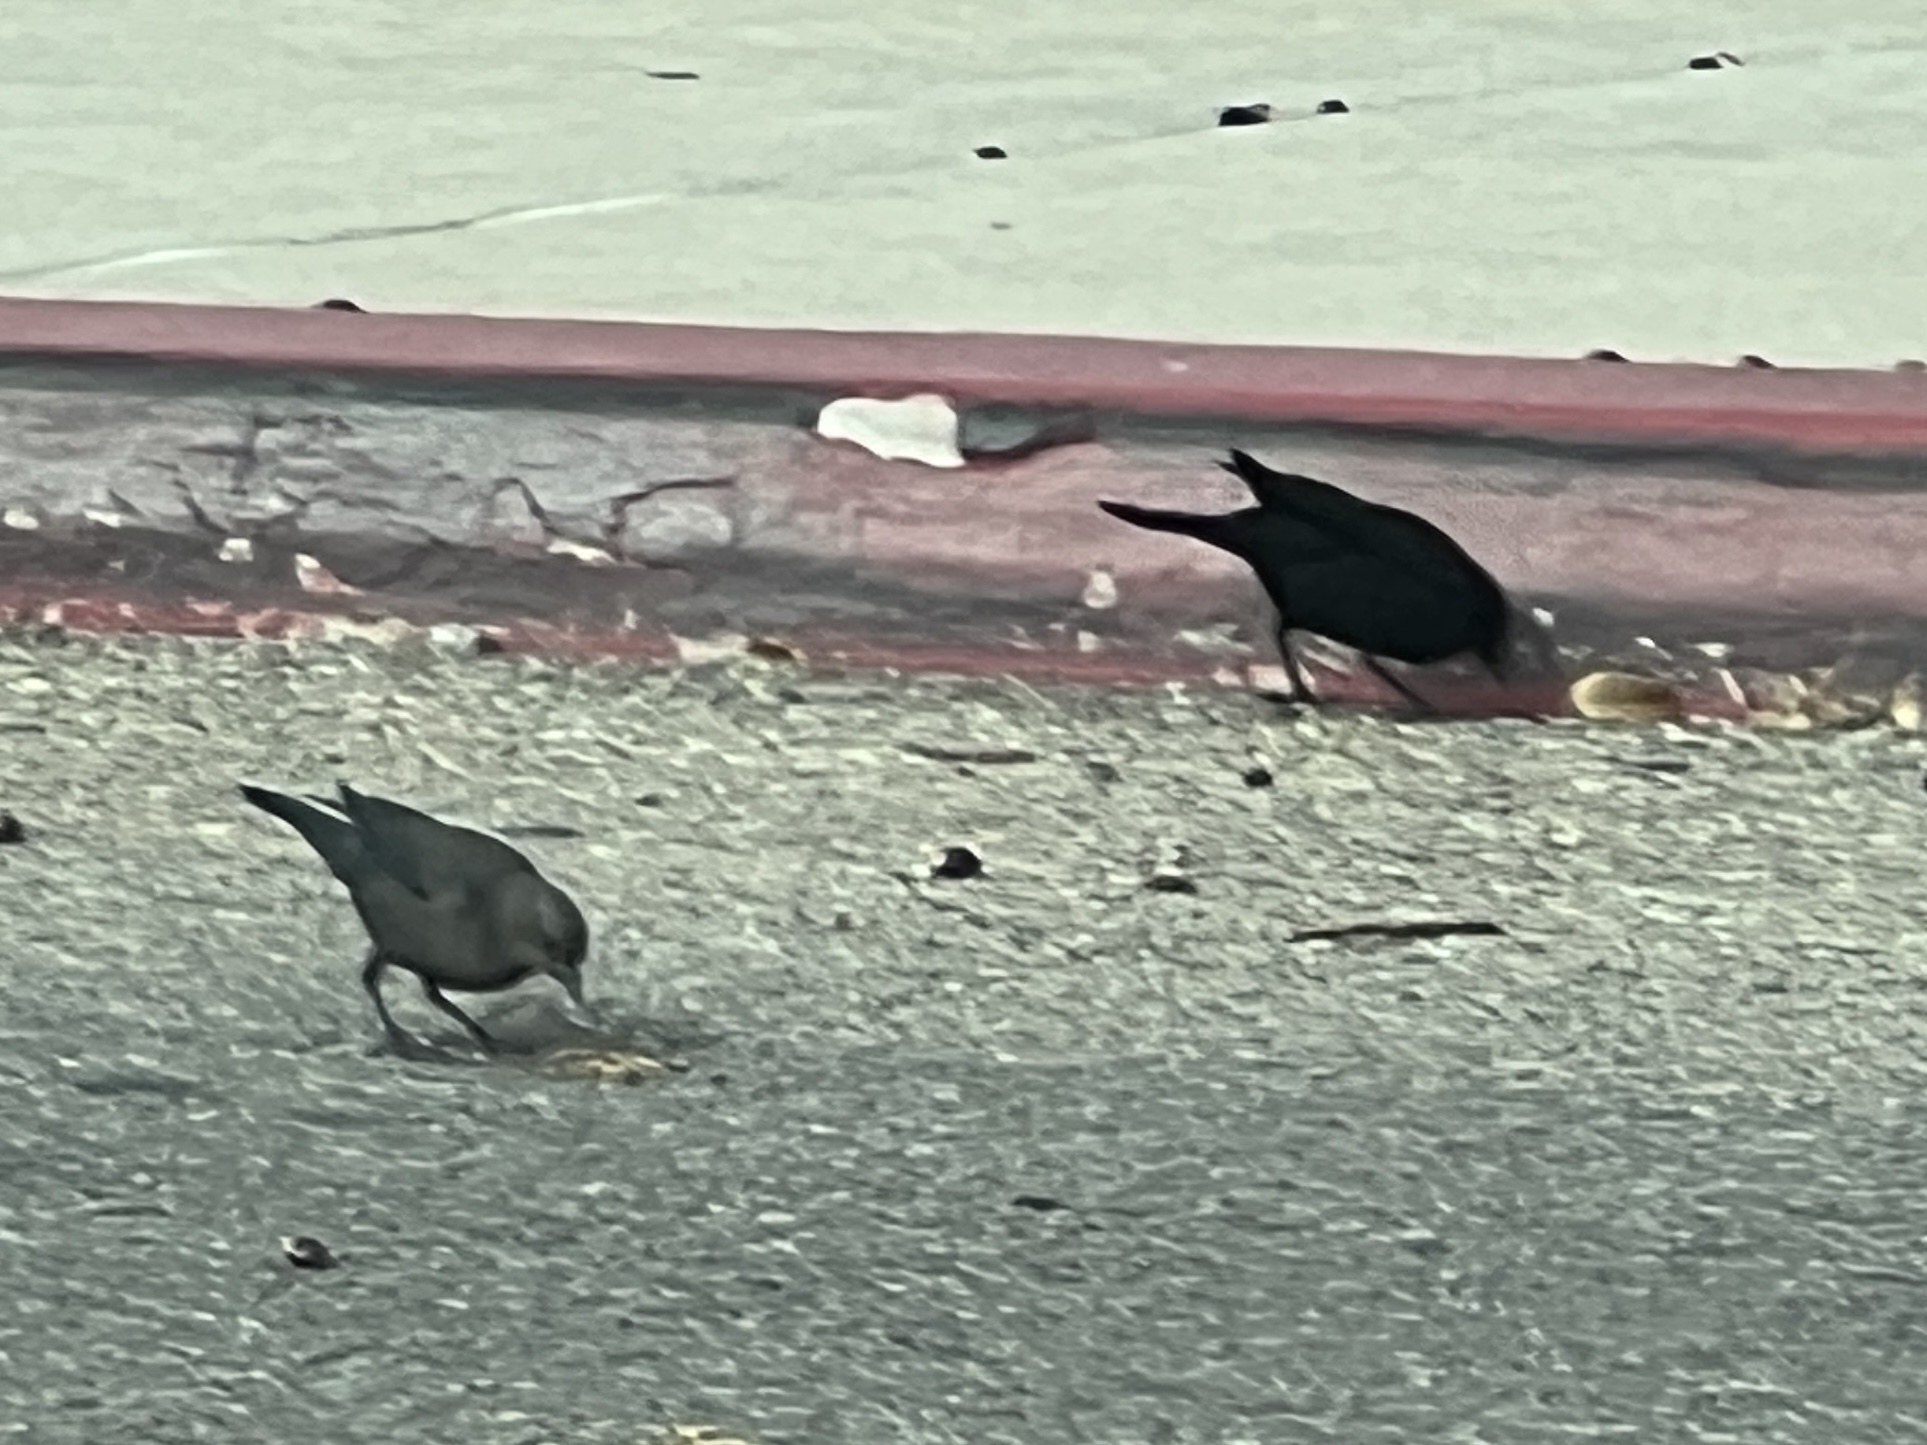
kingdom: Animalia
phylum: Chordata
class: Aves
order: Passeriformes
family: Icteridae
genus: Euphagus
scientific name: Euphagus cyanocephalus
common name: Brewer's blackbird
